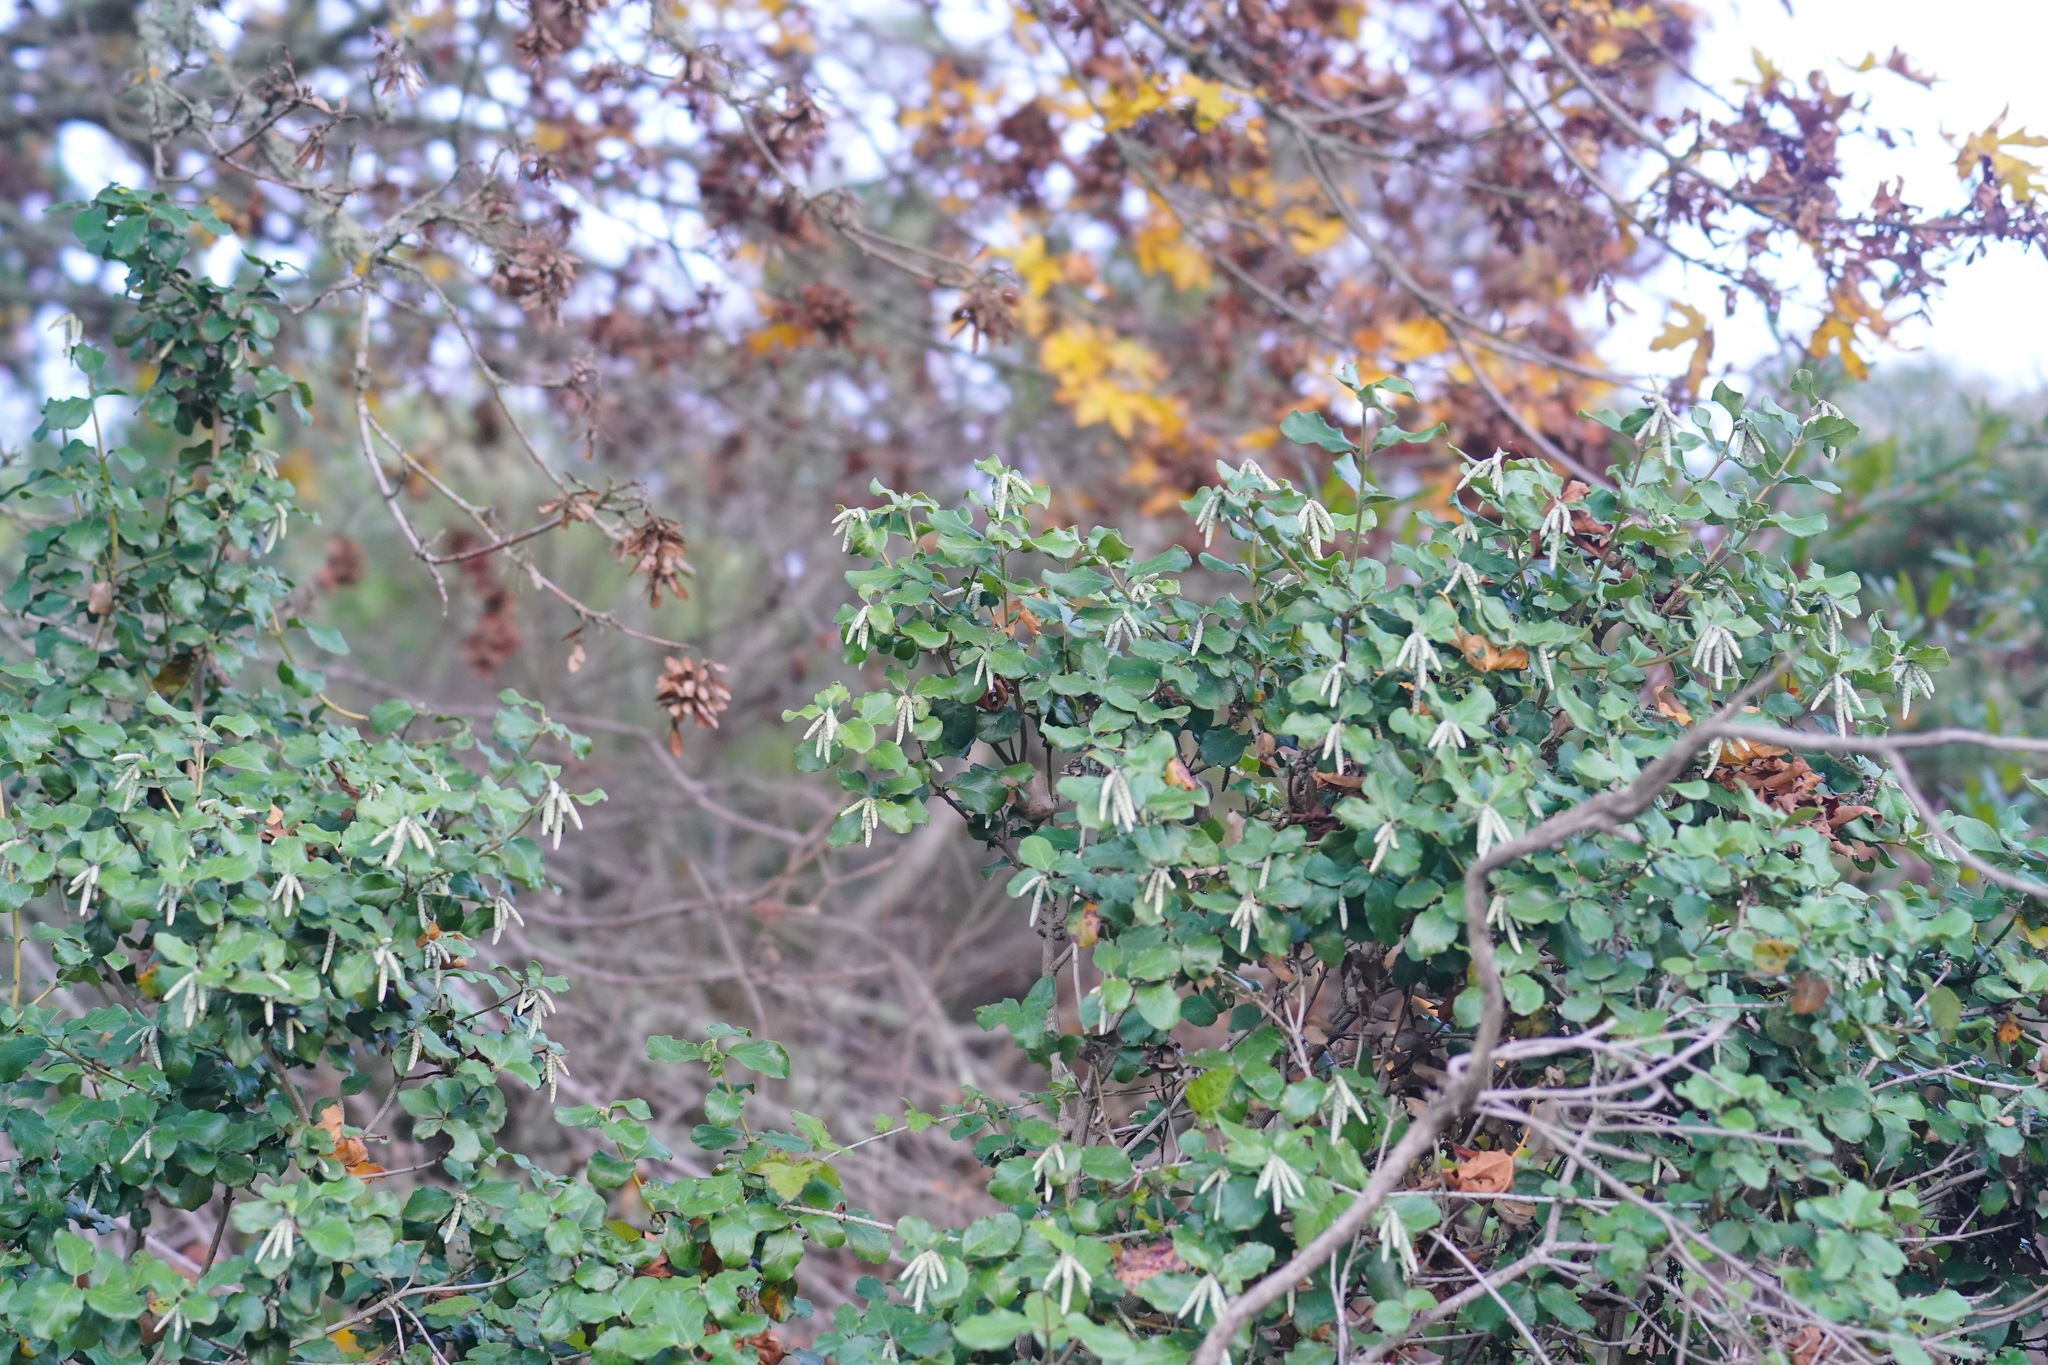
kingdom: Plantae
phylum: Tracheophyta
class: Magnoliopsida
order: Garryales
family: Garryaceae
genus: Garrya
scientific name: Garrya elliptica
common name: Silk-tassel
